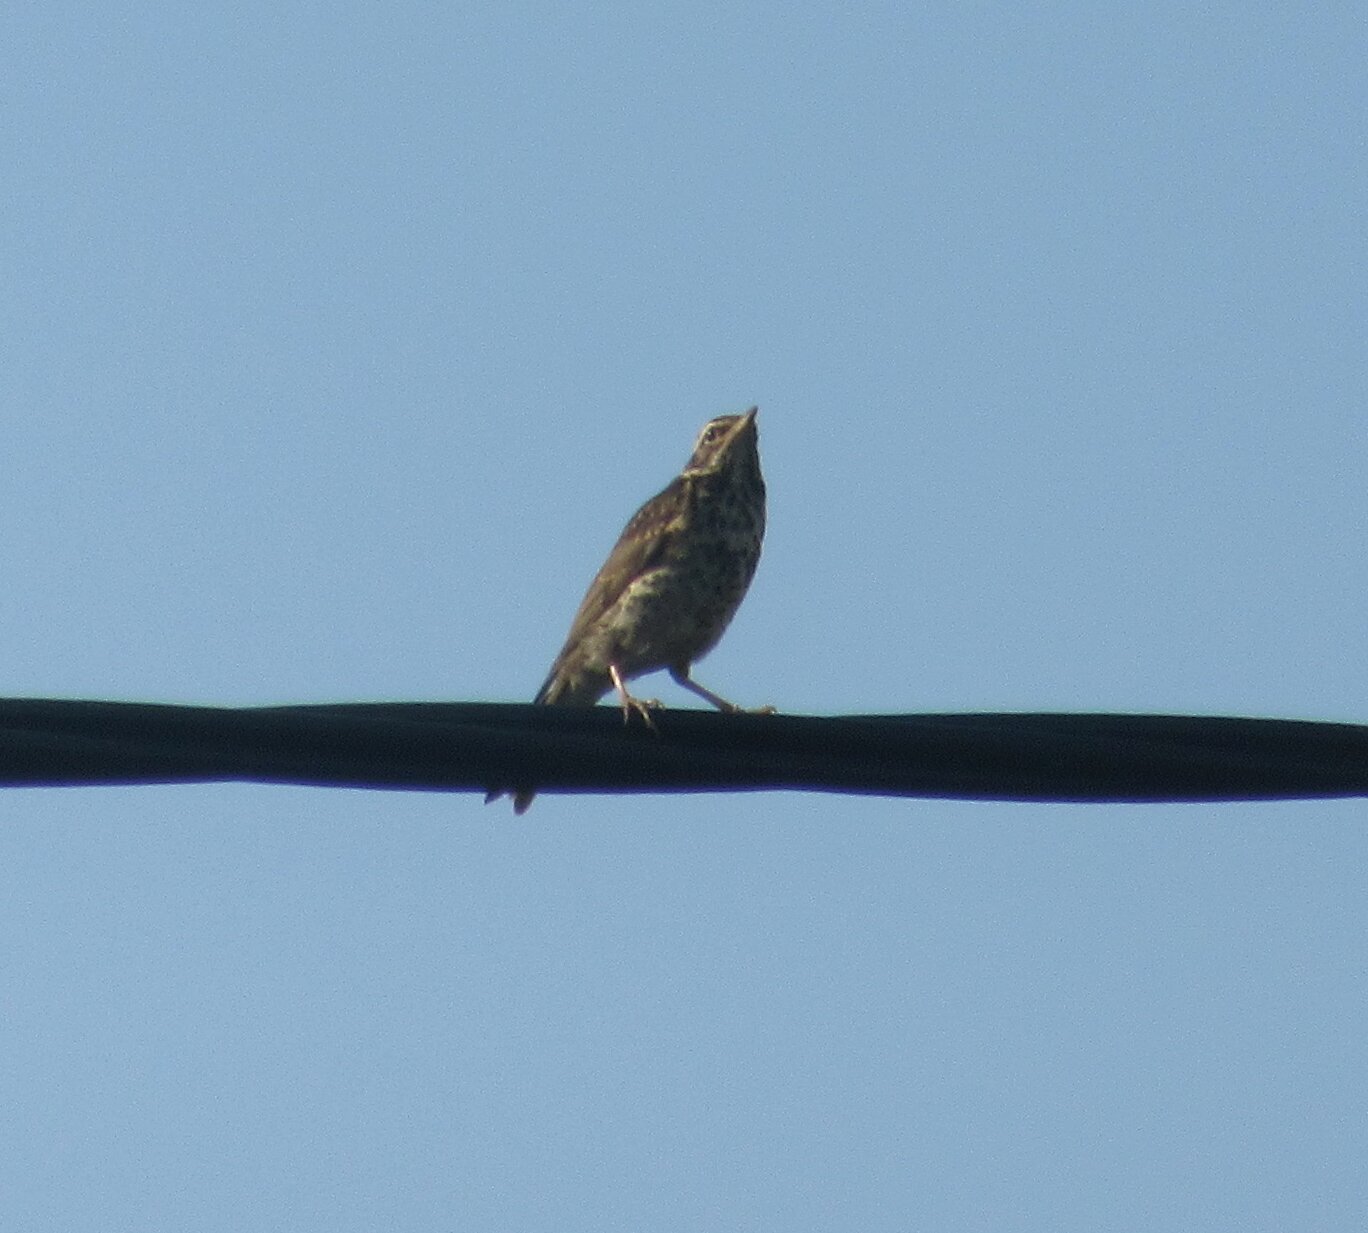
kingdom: Animalia
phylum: Chordata
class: Aves
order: Passeriformes
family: Turdidae
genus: Turdus
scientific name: Turdus iliacus
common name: Redwing
